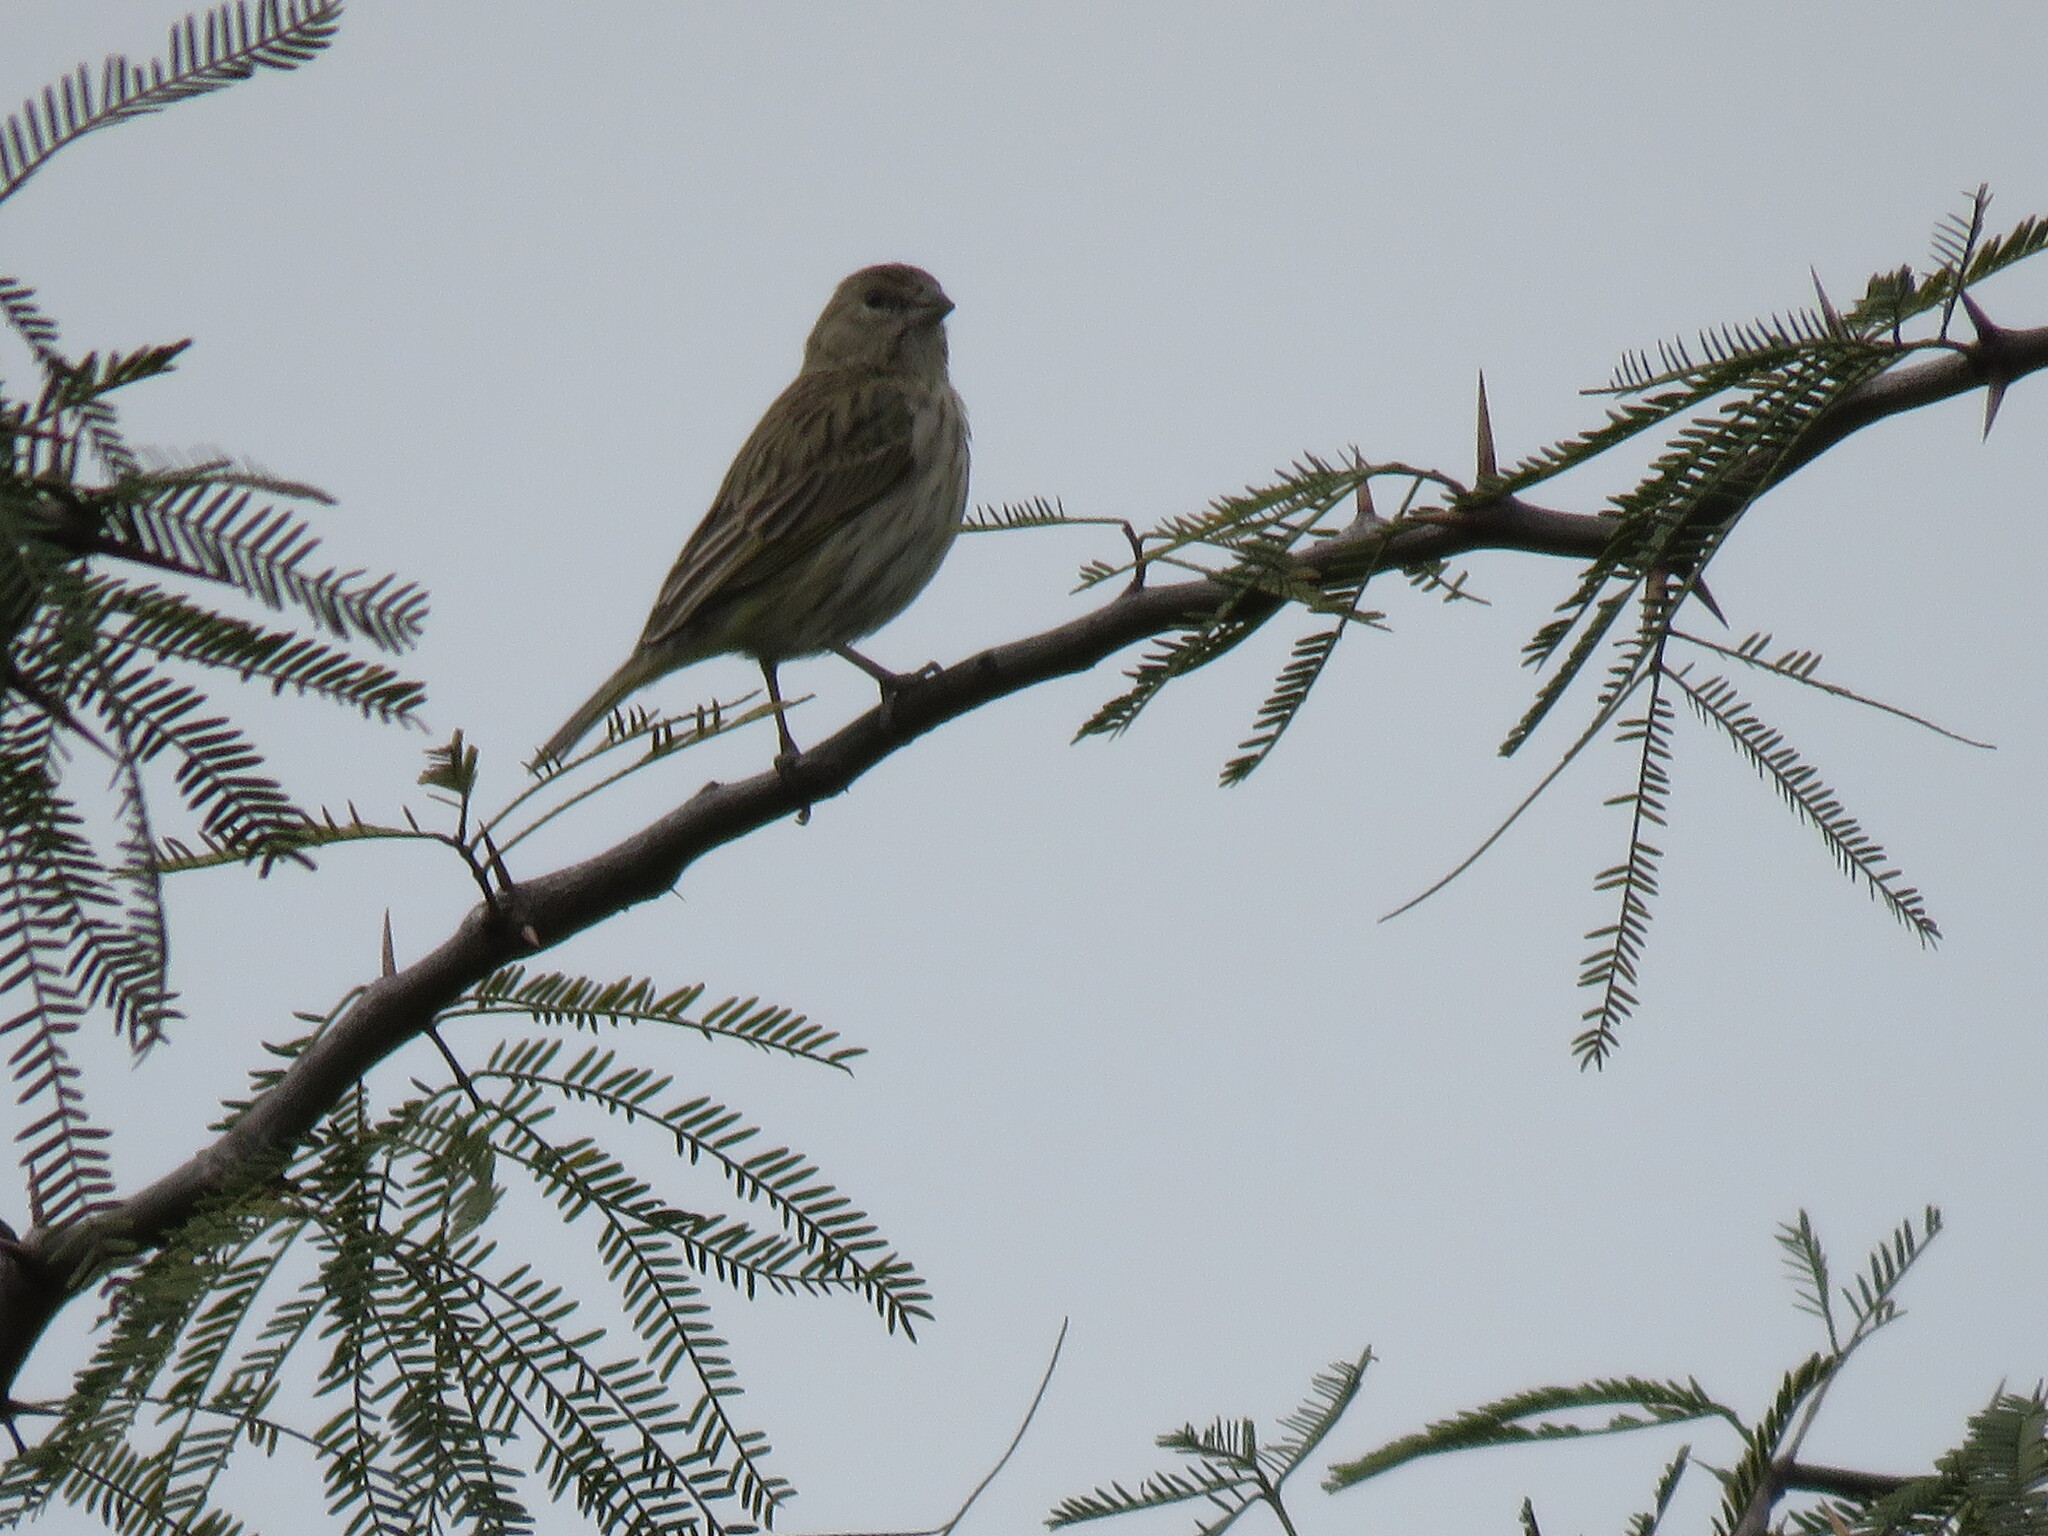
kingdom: Animalia
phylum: Chordata
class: Aves
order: Passeriformes
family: Thraupidae
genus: Sicalis
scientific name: Sicalis flaveola
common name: Saffron finch
